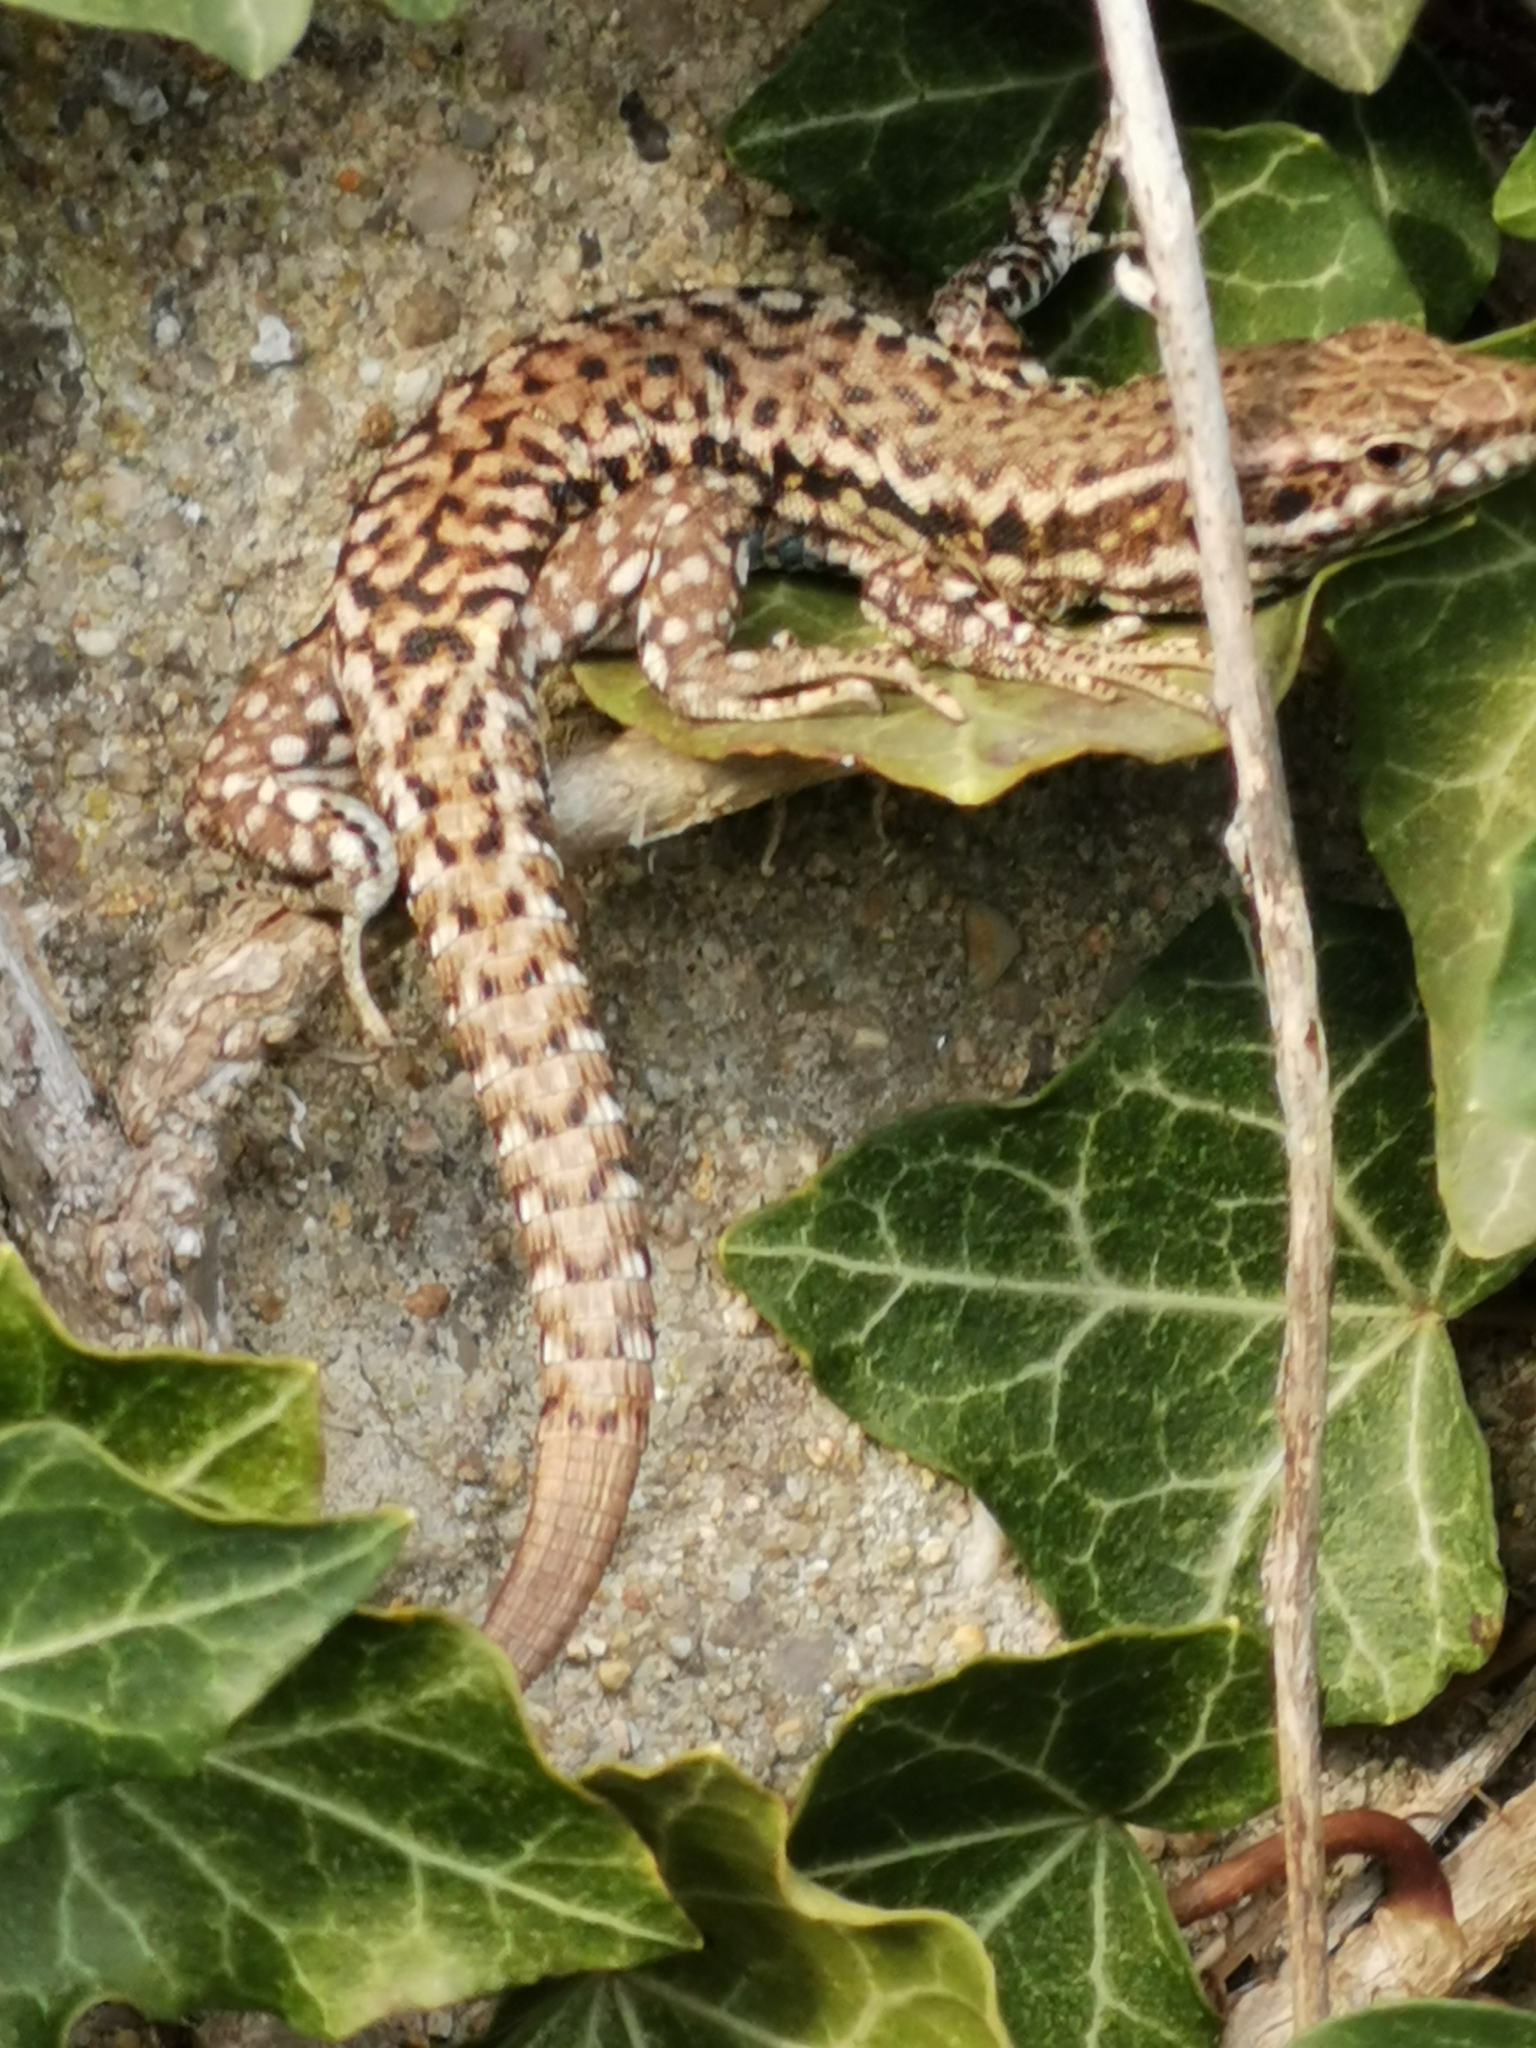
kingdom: Animalia
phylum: Chordata
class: Squamata
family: Lacertidae
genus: Podarcis
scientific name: Podarcis muralis
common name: Common wall lizard
